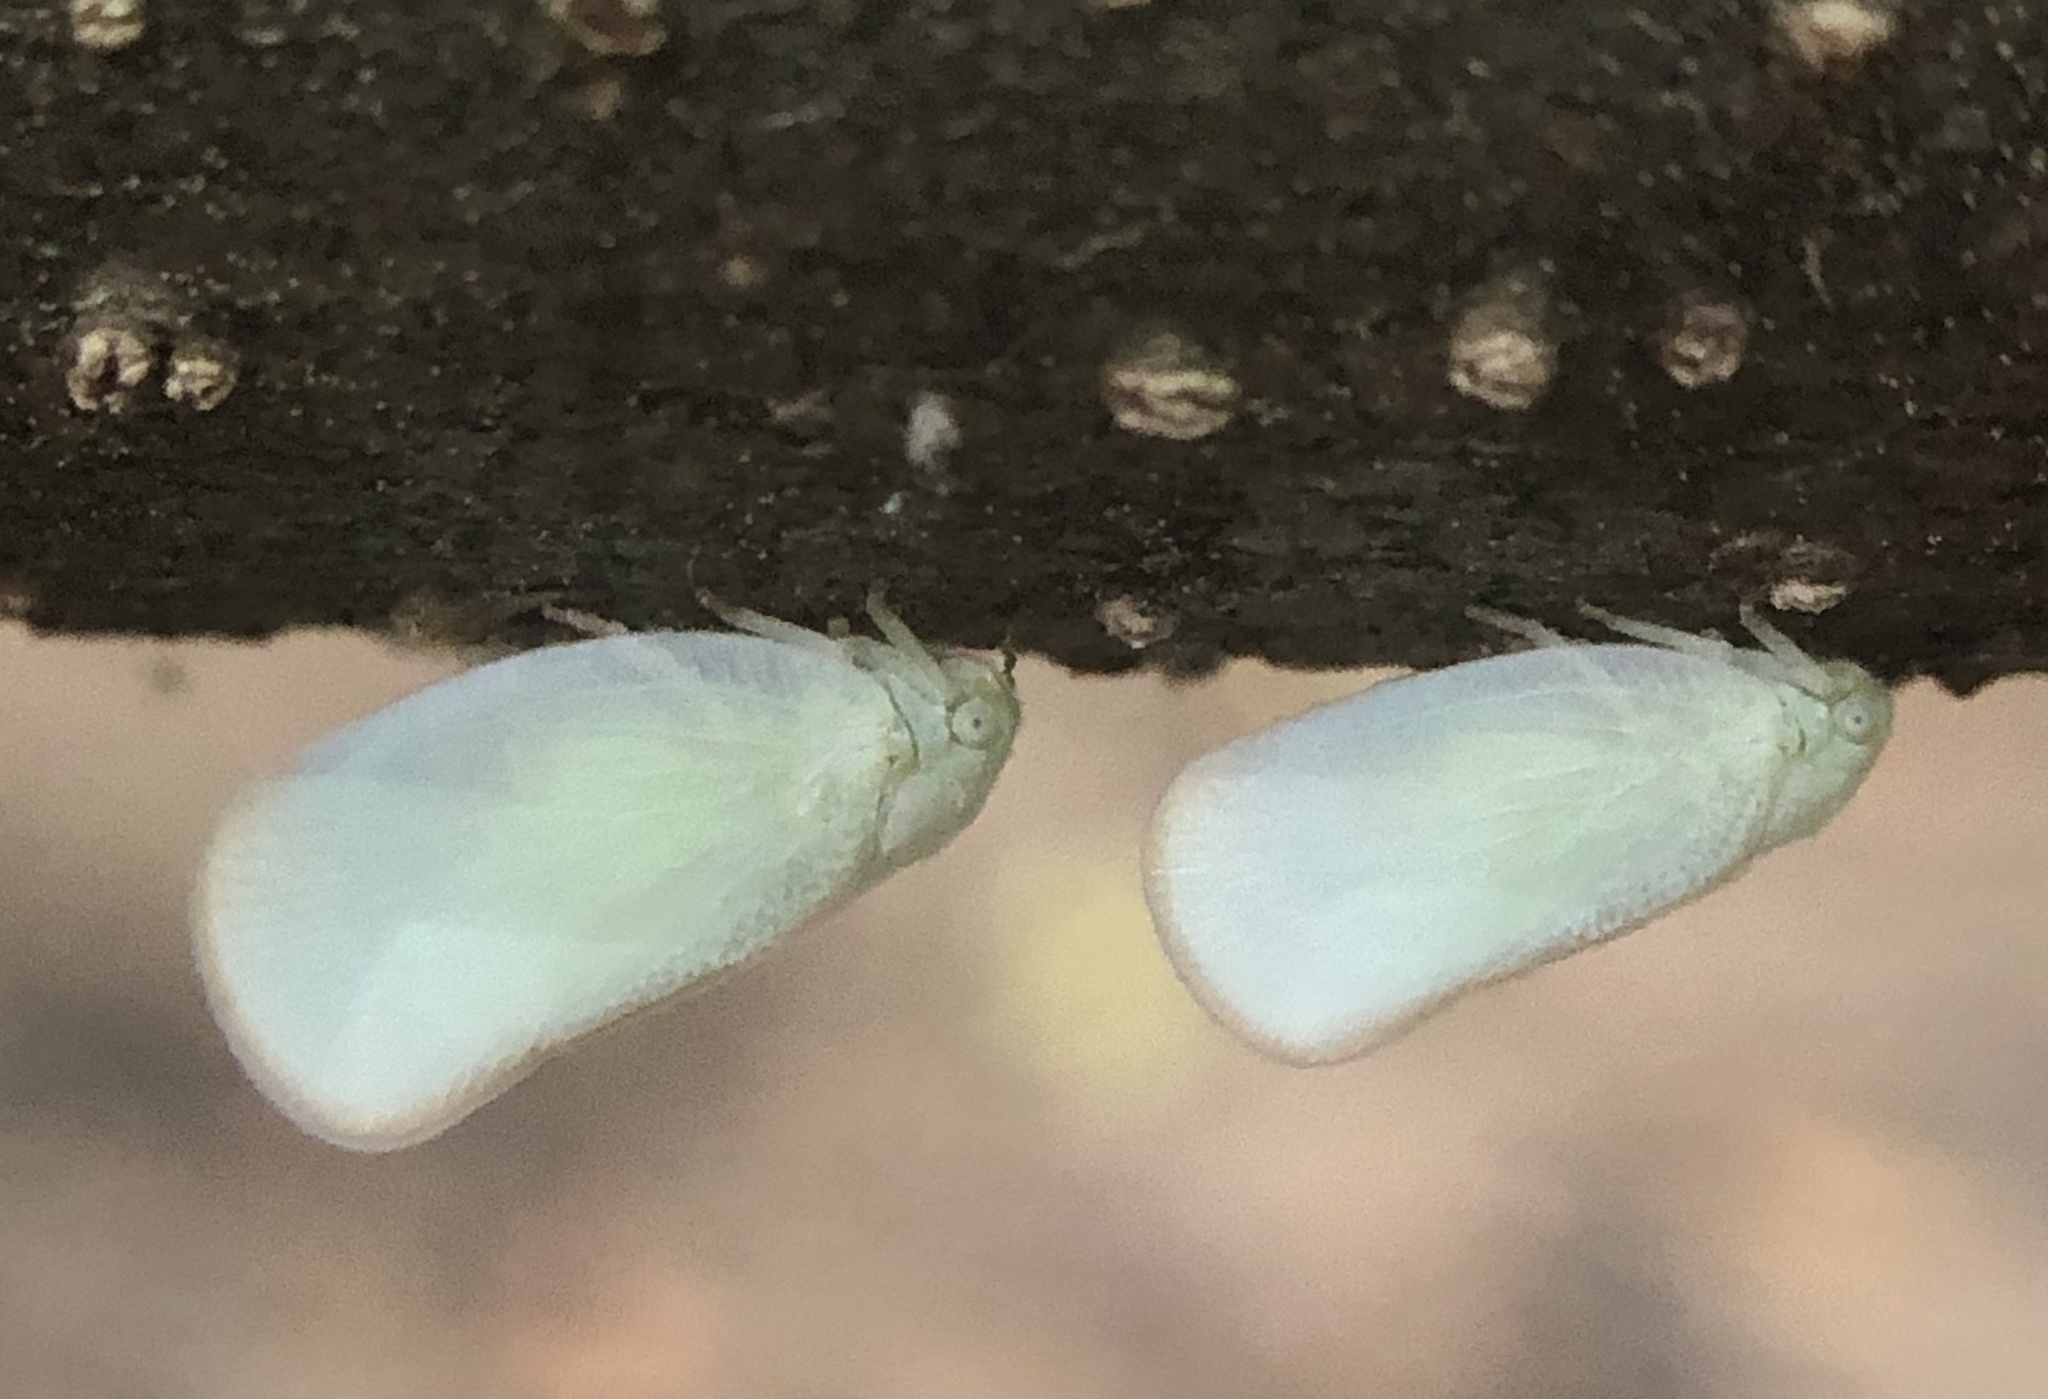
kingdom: Animalia
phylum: Arthropoda
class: Insecta
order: Hemiptera
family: Flatidae
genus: Ormenoides
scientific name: Ormenoides venusta
